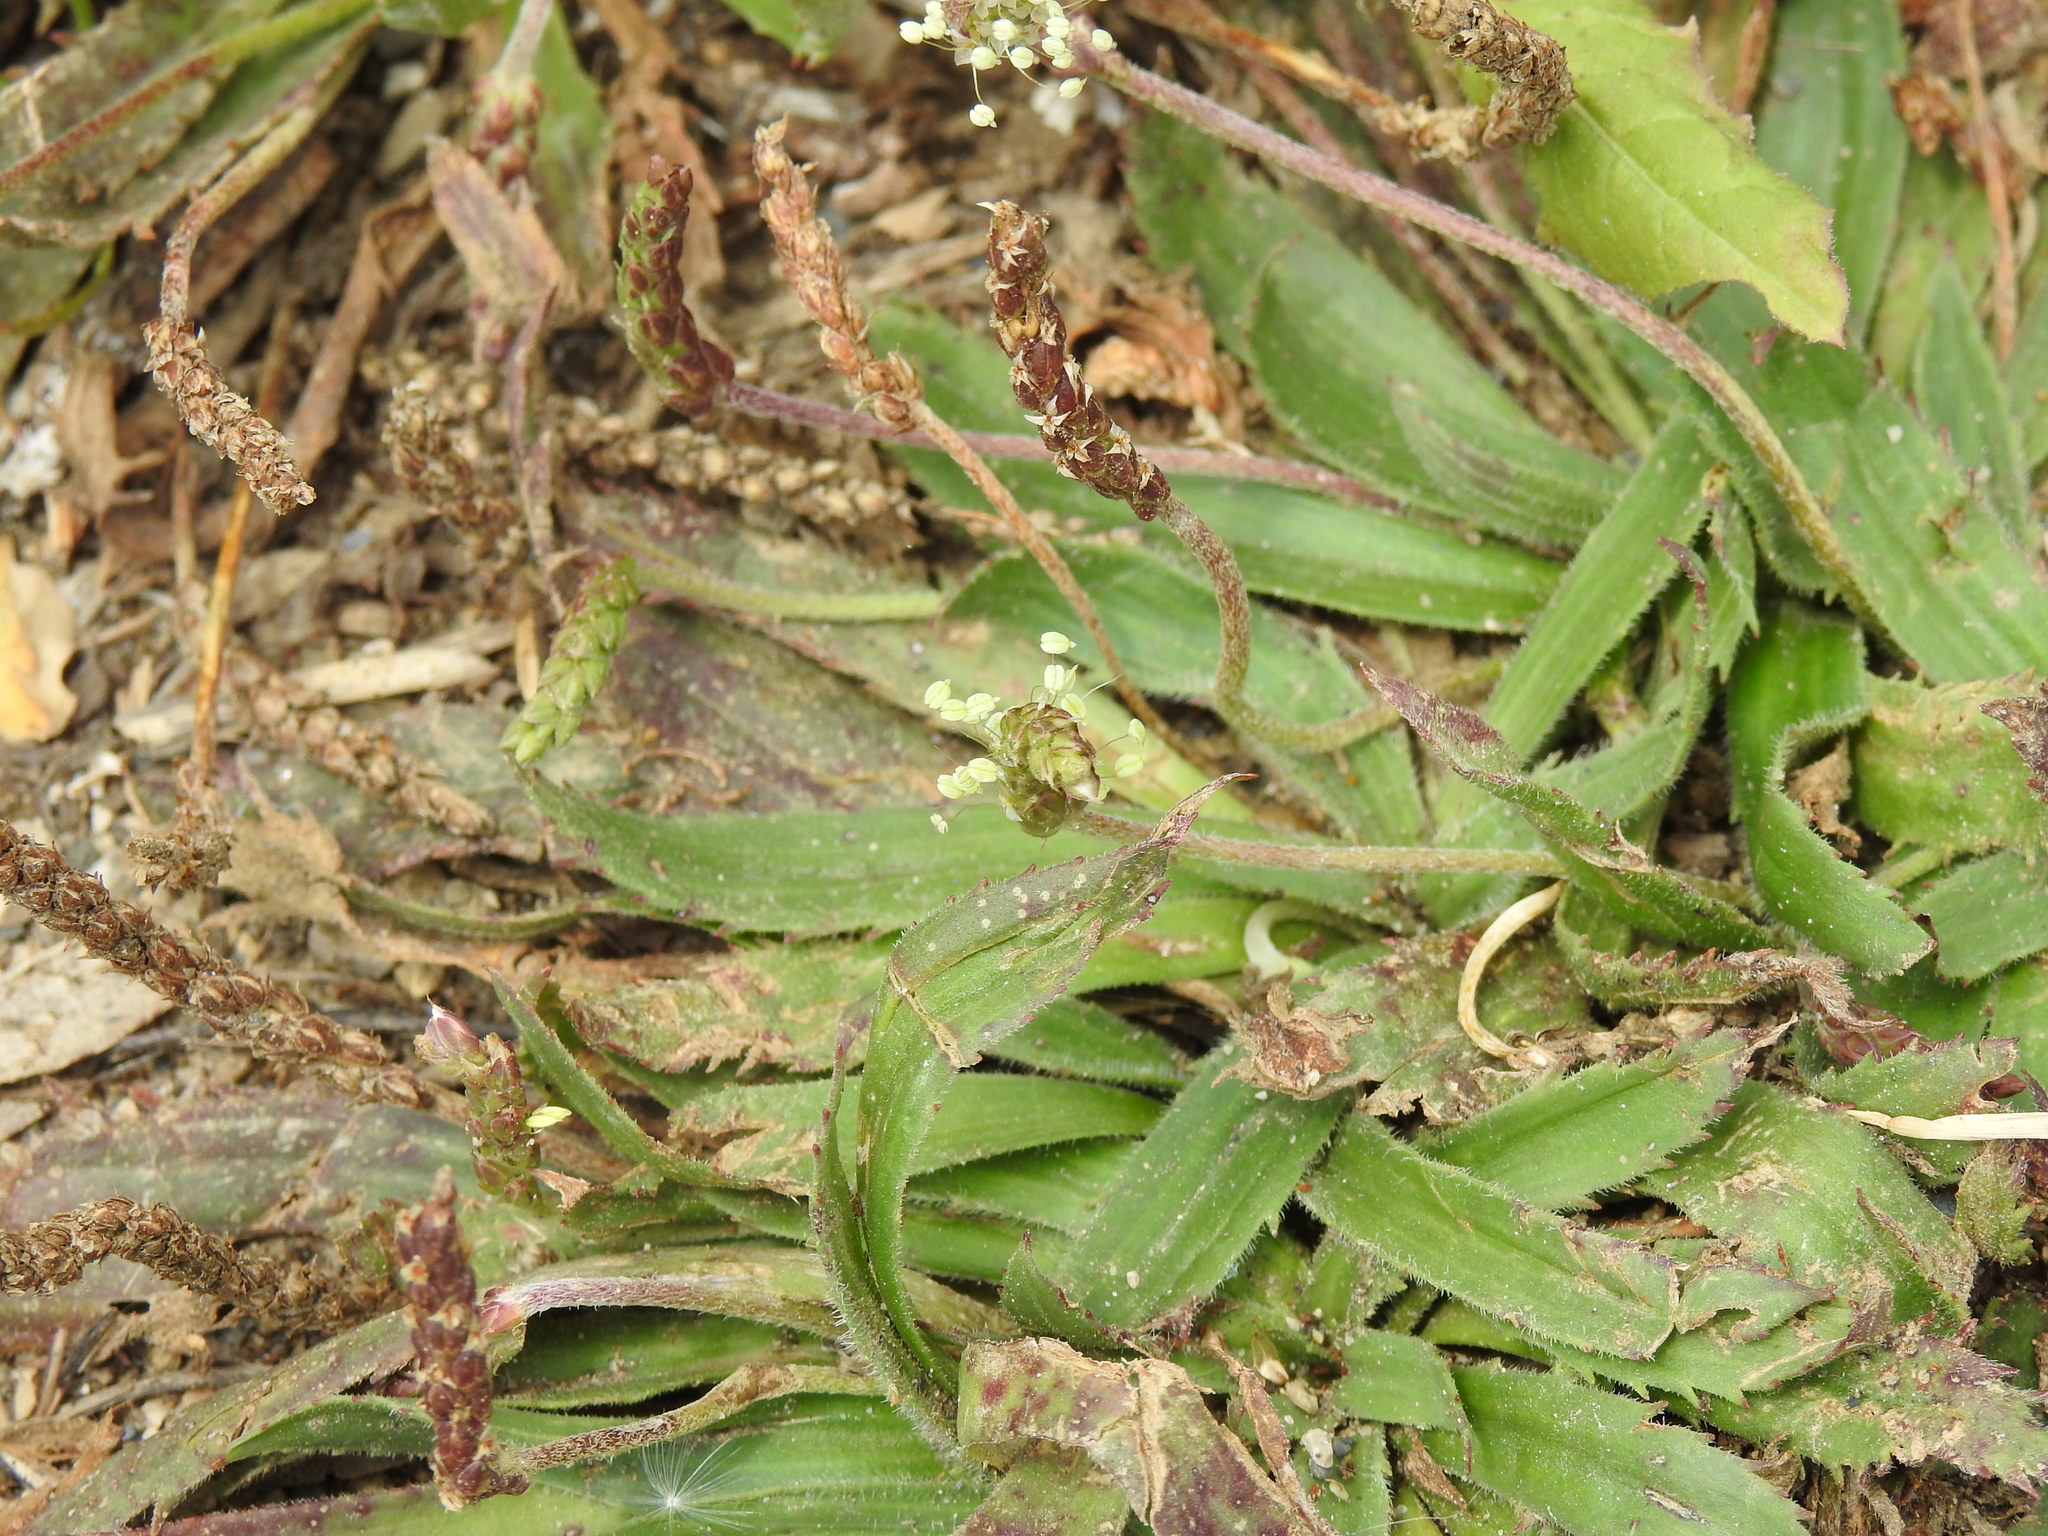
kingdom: Plantae
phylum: Tracheophyta
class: Magnoliopsida
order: Lamiales
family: Plantaginaceae
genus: Plantago
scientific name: Plantago serraria
